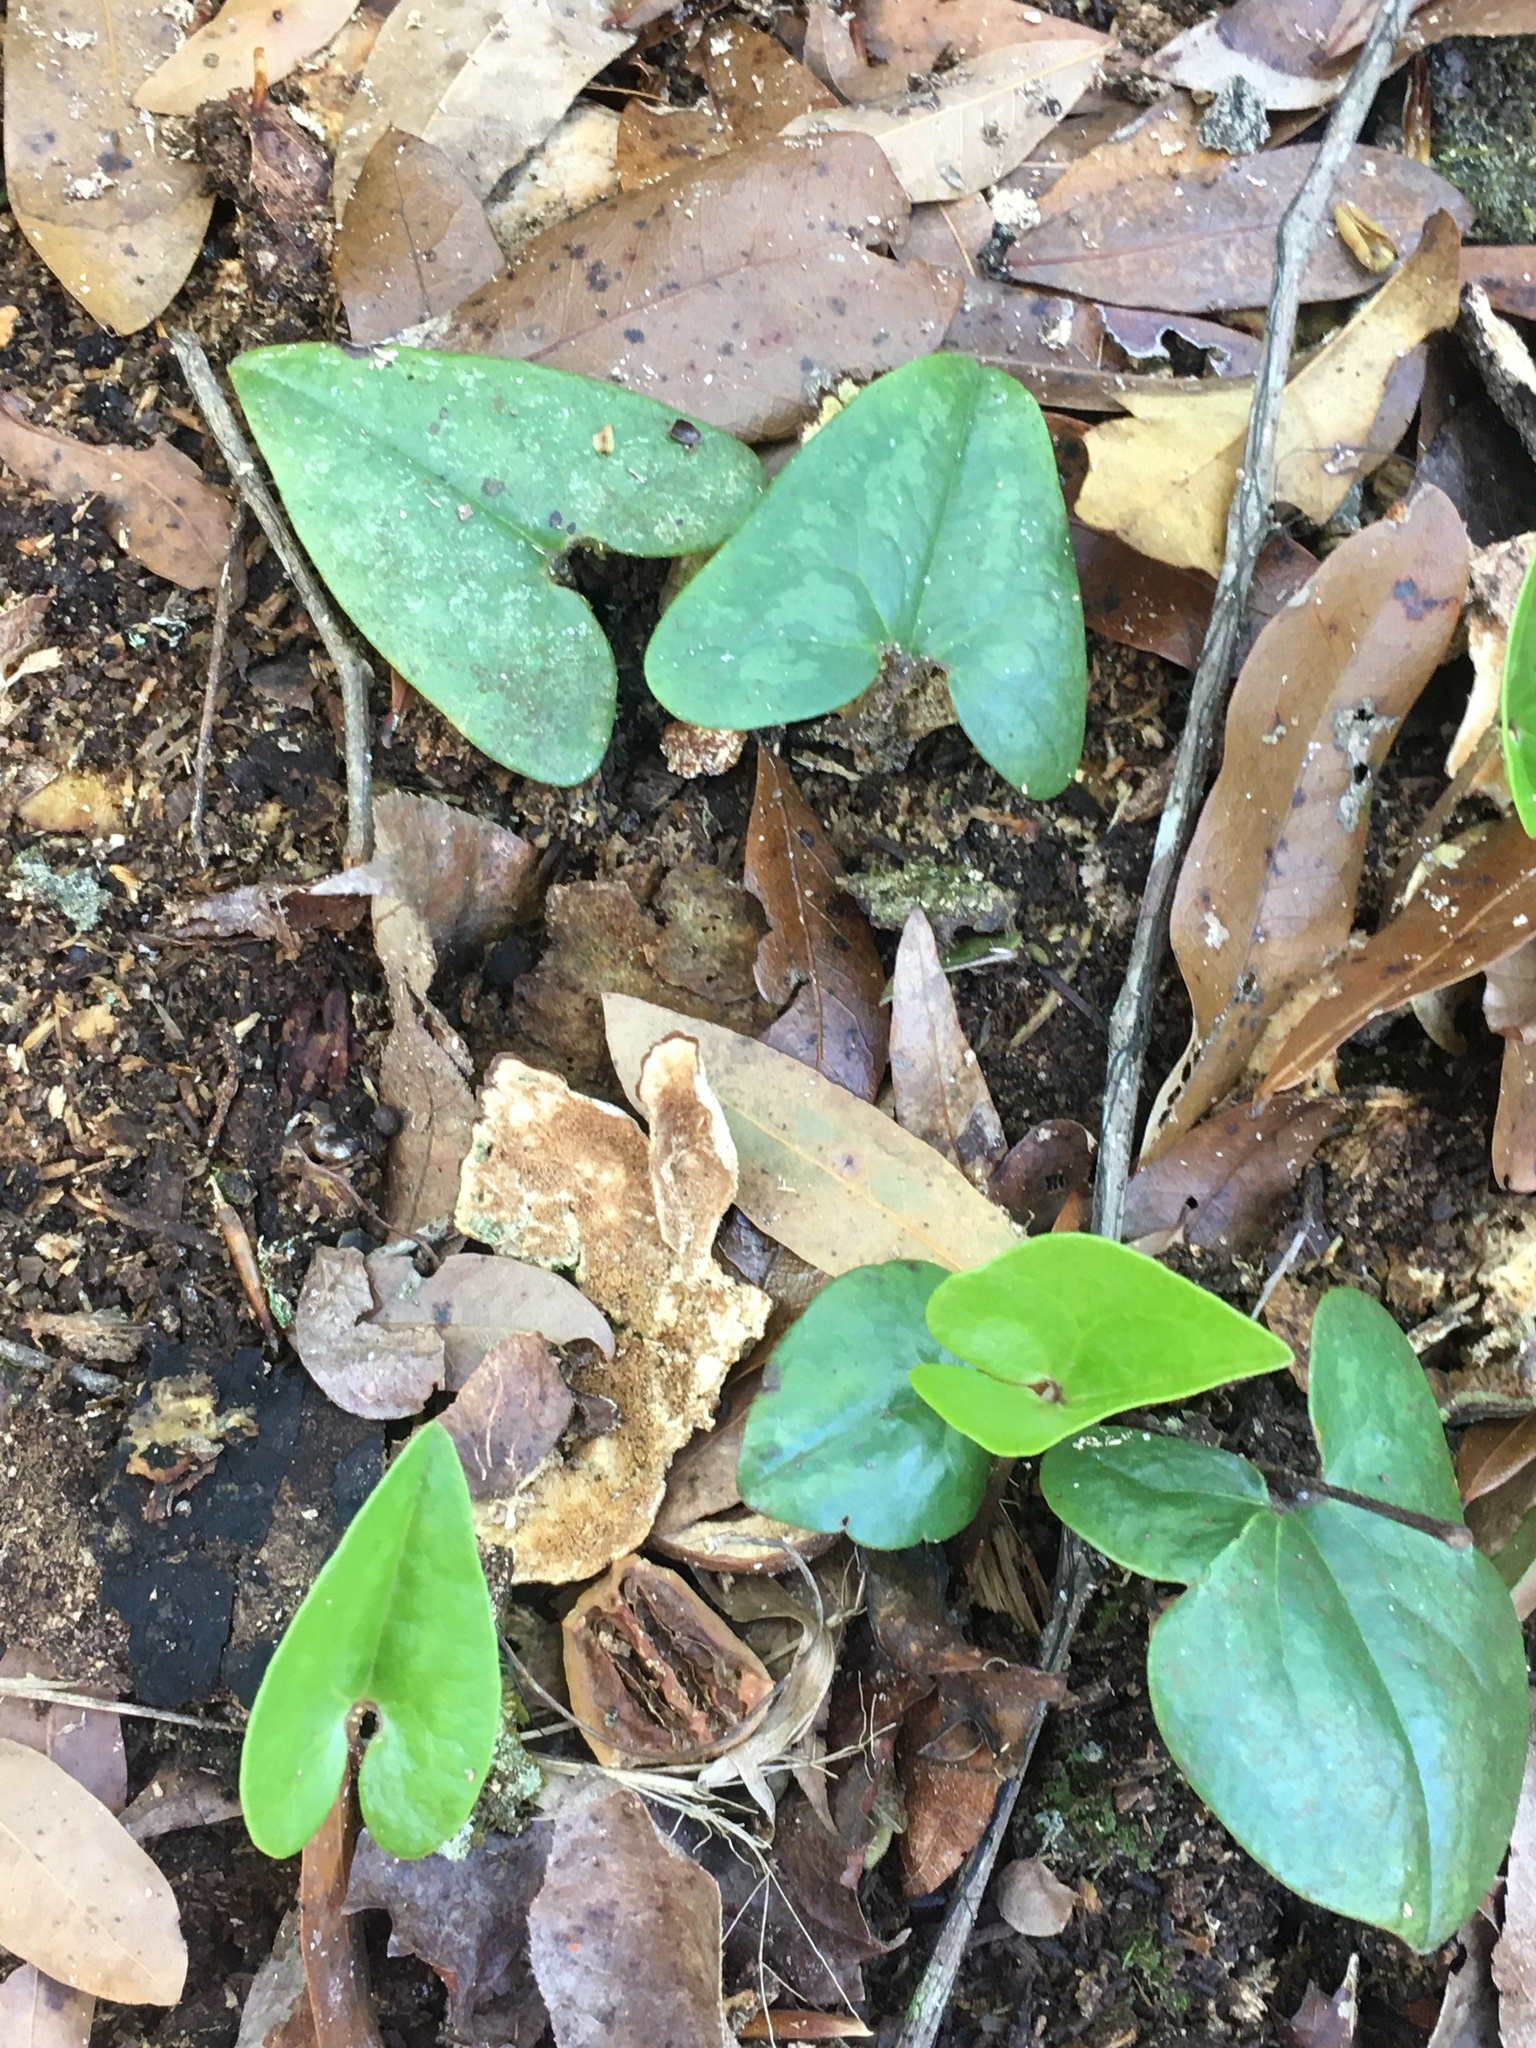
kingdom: Plantae
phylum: Tracheophyta
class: Magnoliopsida
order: Piperales
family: Aristolochiaceae
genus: Hexastylis
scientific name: Hexastylis arifolia
